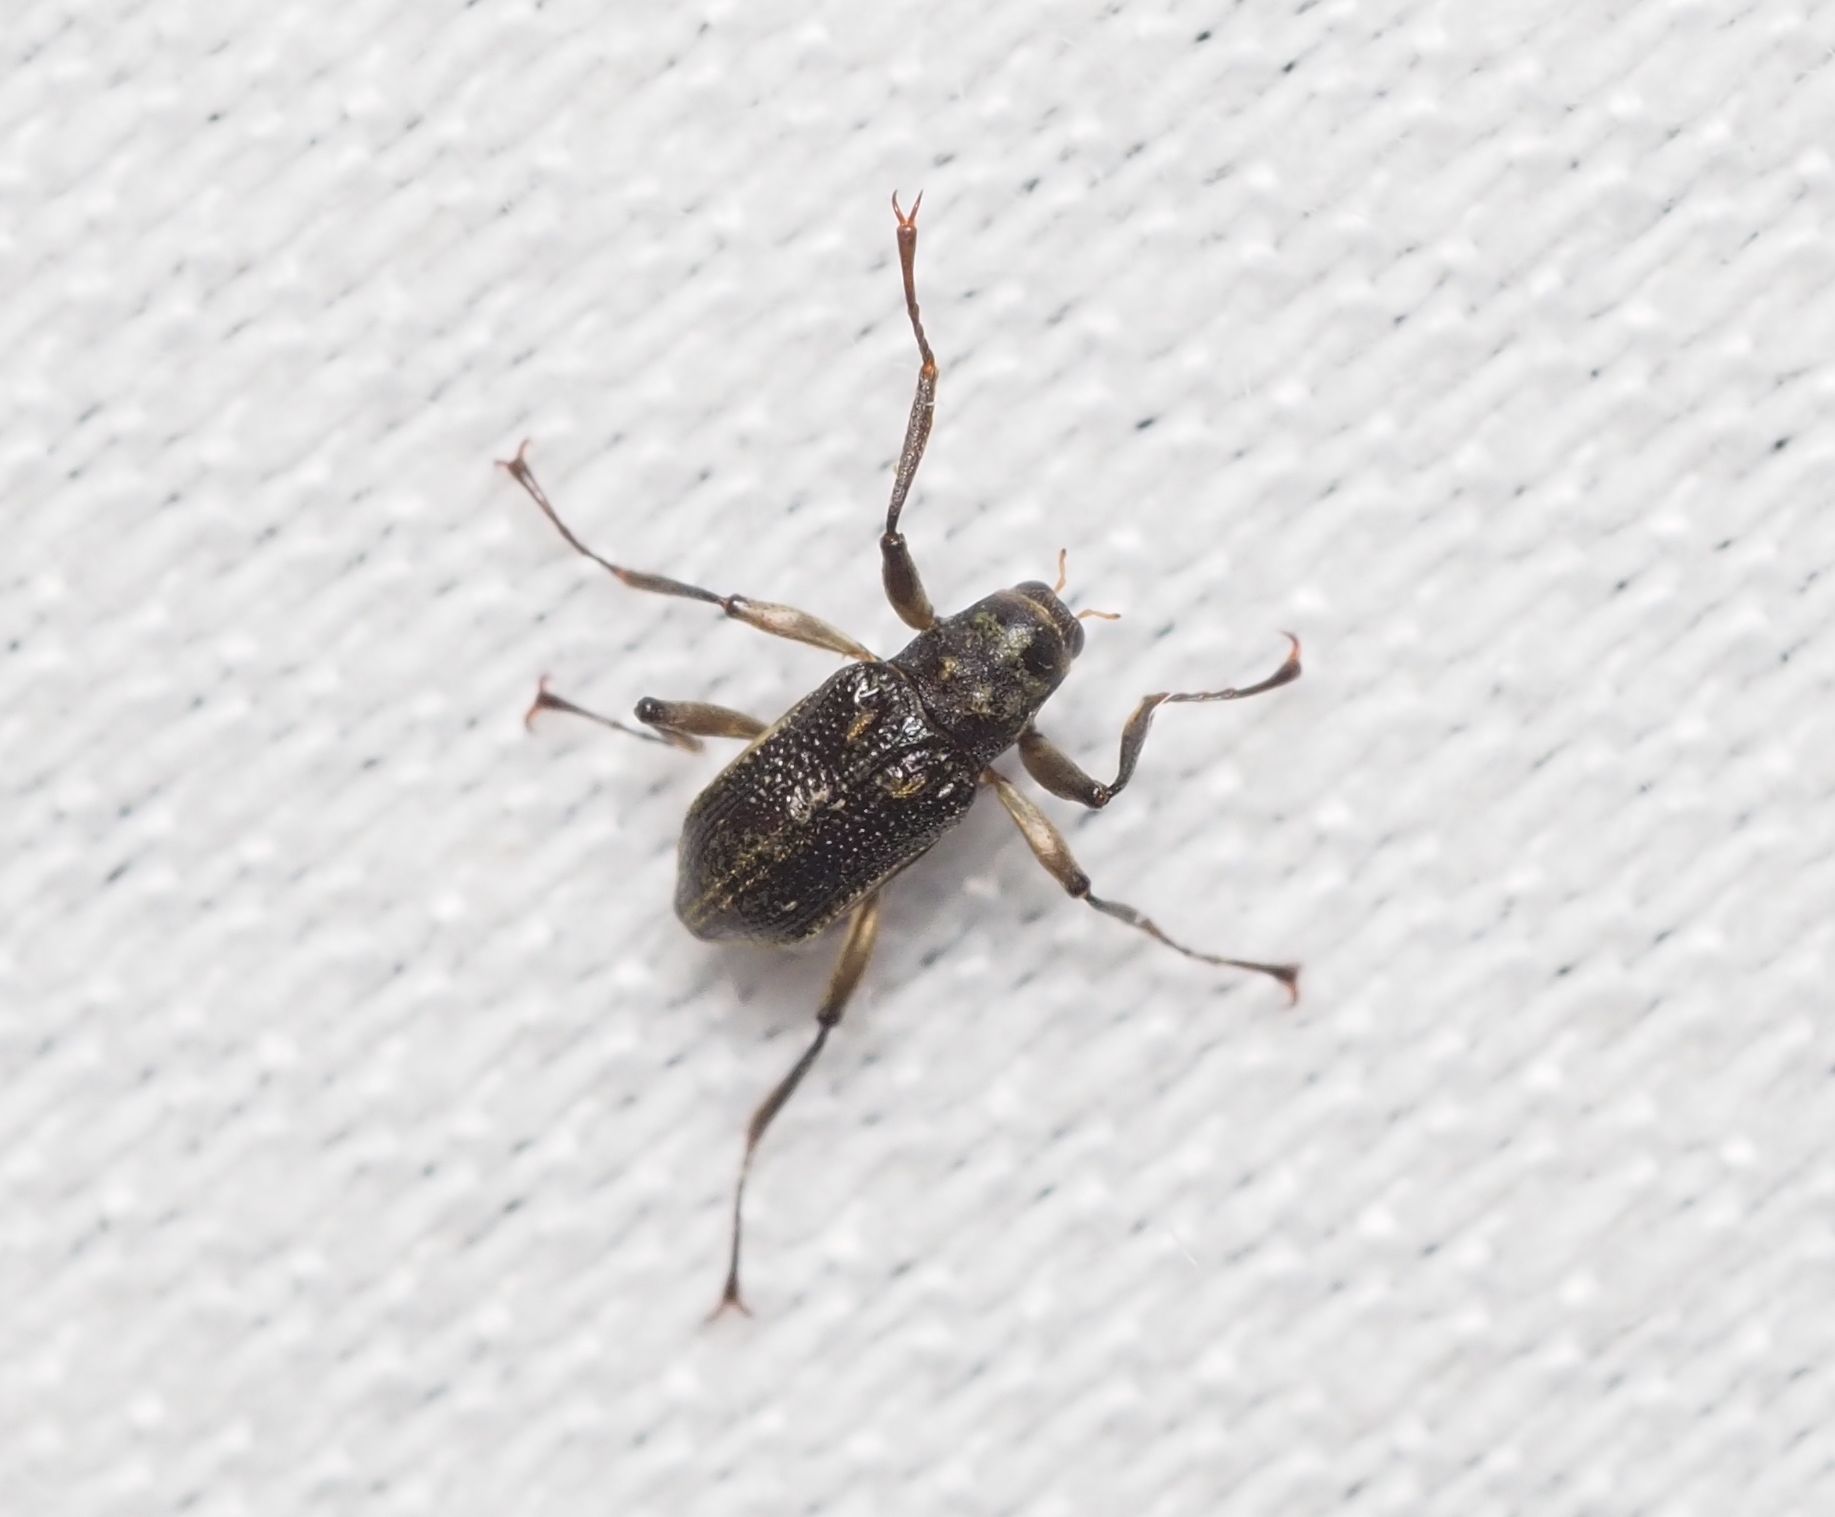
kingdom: Animalia
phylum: Arthropoda
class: Insecta
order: Coleoptera
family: Elmidae
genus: Macronychus
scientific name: Macronychus quadrituberculatus
